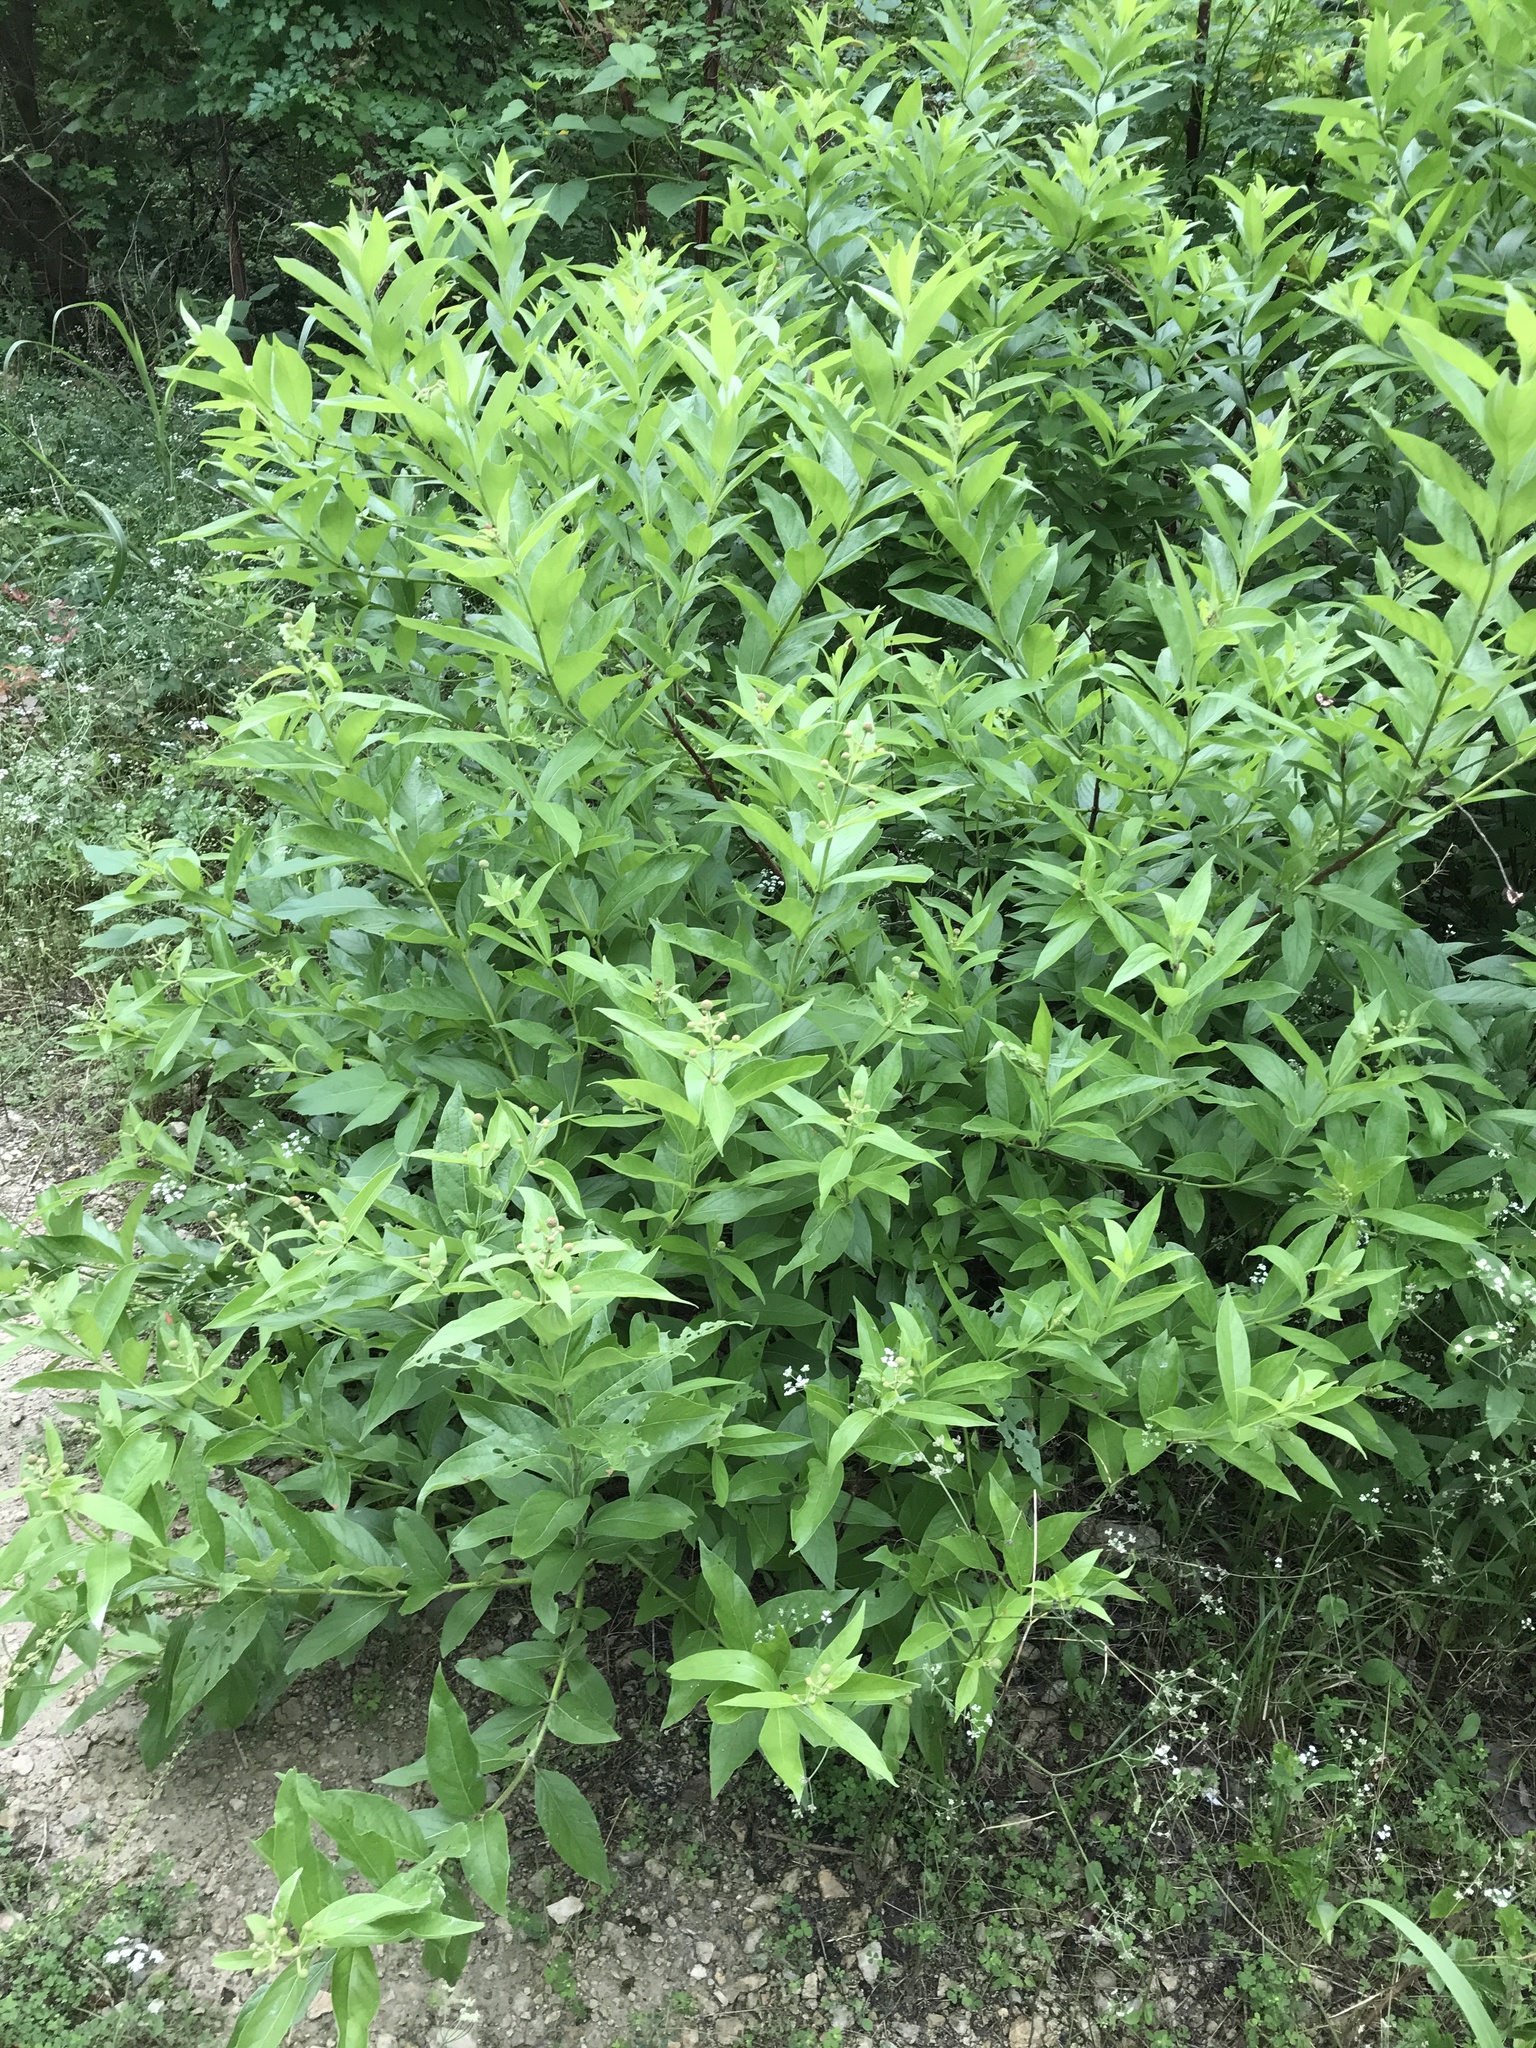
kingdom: Plantae
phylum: Tracheophyta
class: Magnoliopsida
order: Gentianales
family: Rubiaceae
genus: Cephalanthus
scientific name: Cephalanthus occidentalis
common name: Button-willow
